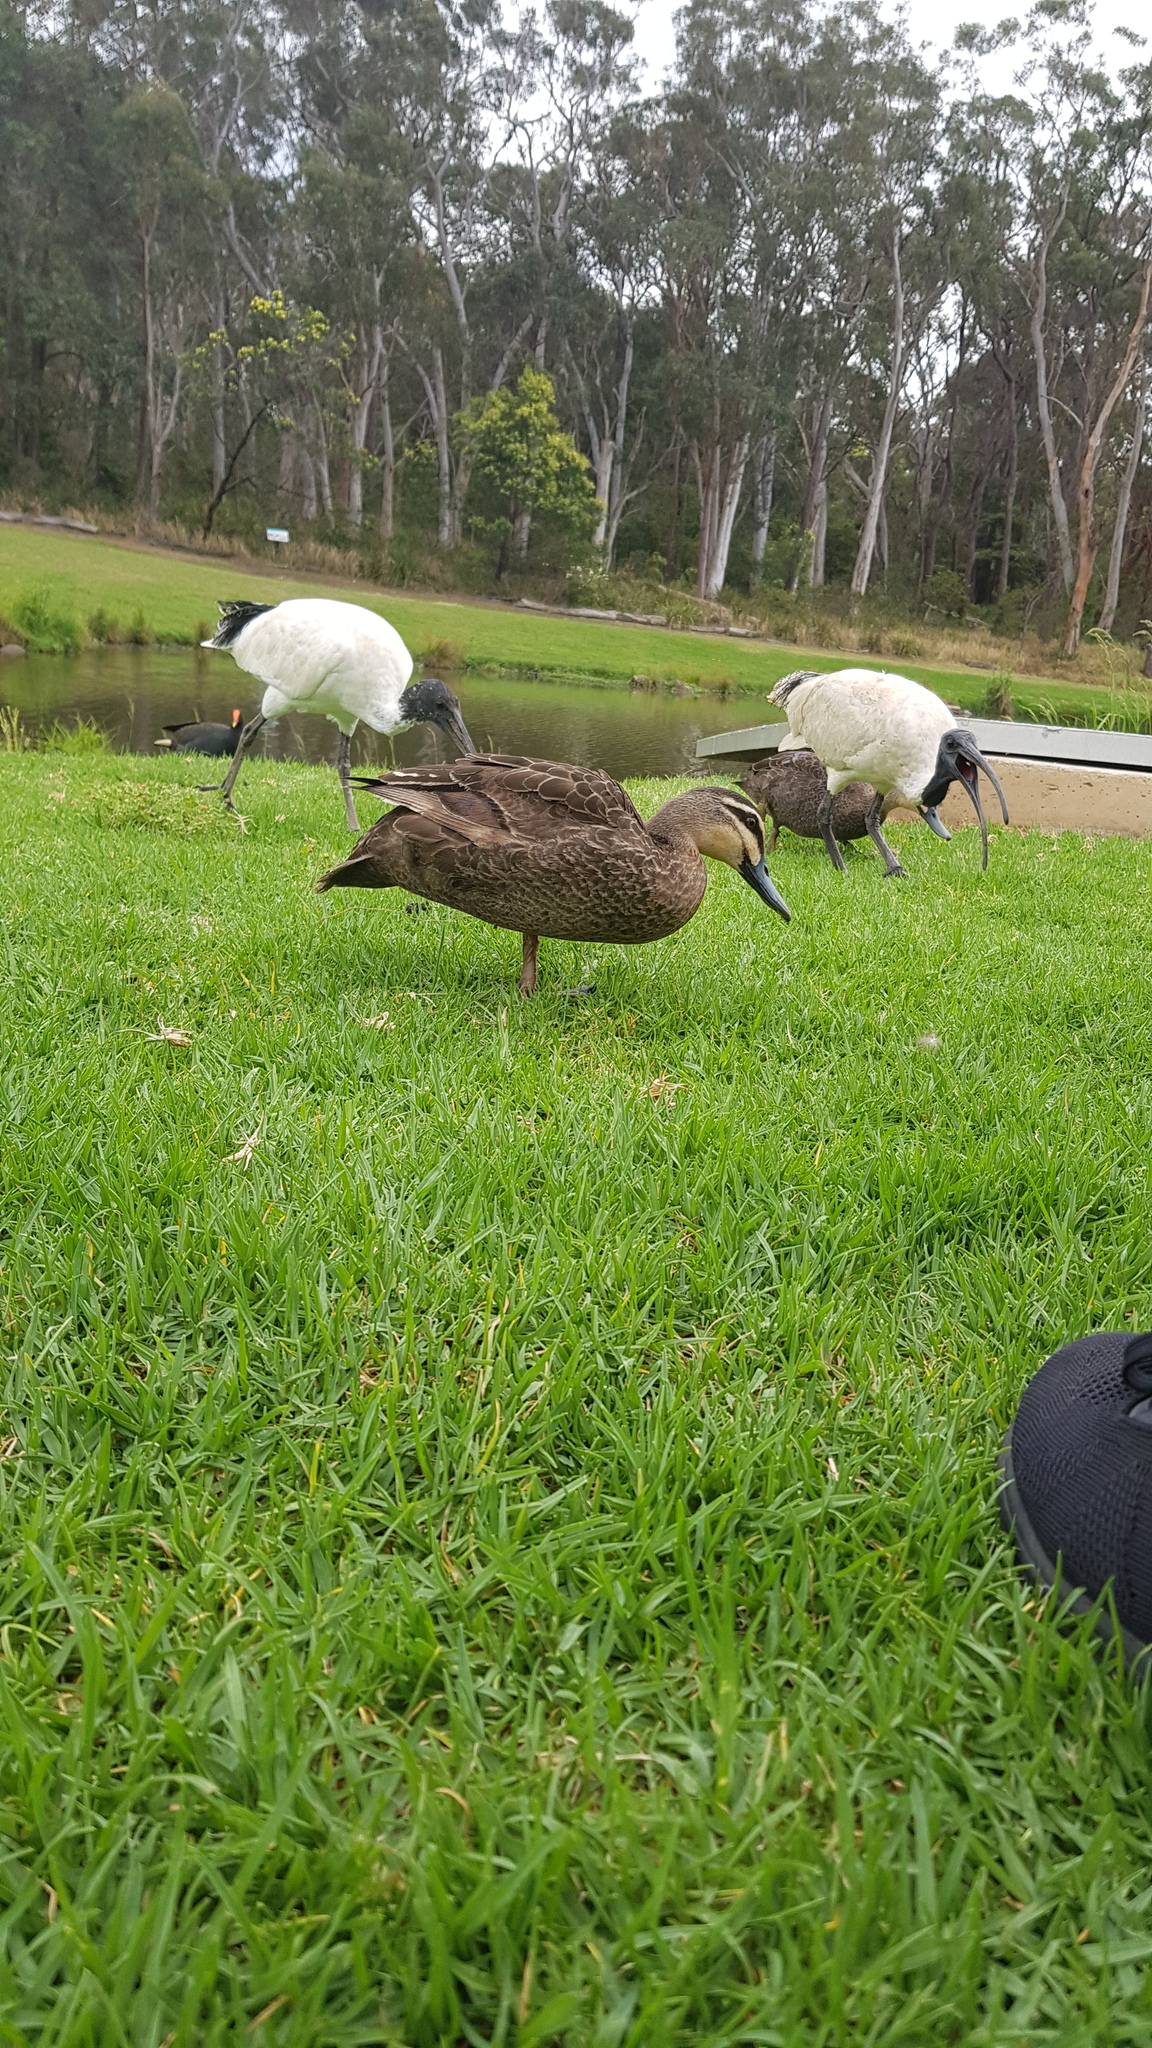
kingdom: Animalia
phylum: Chordata
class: Aves
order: Pelecaniformes
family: Threskiornithidae
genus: Threskiornis
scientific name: Threskiornis molucca
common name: Australian white ibis
